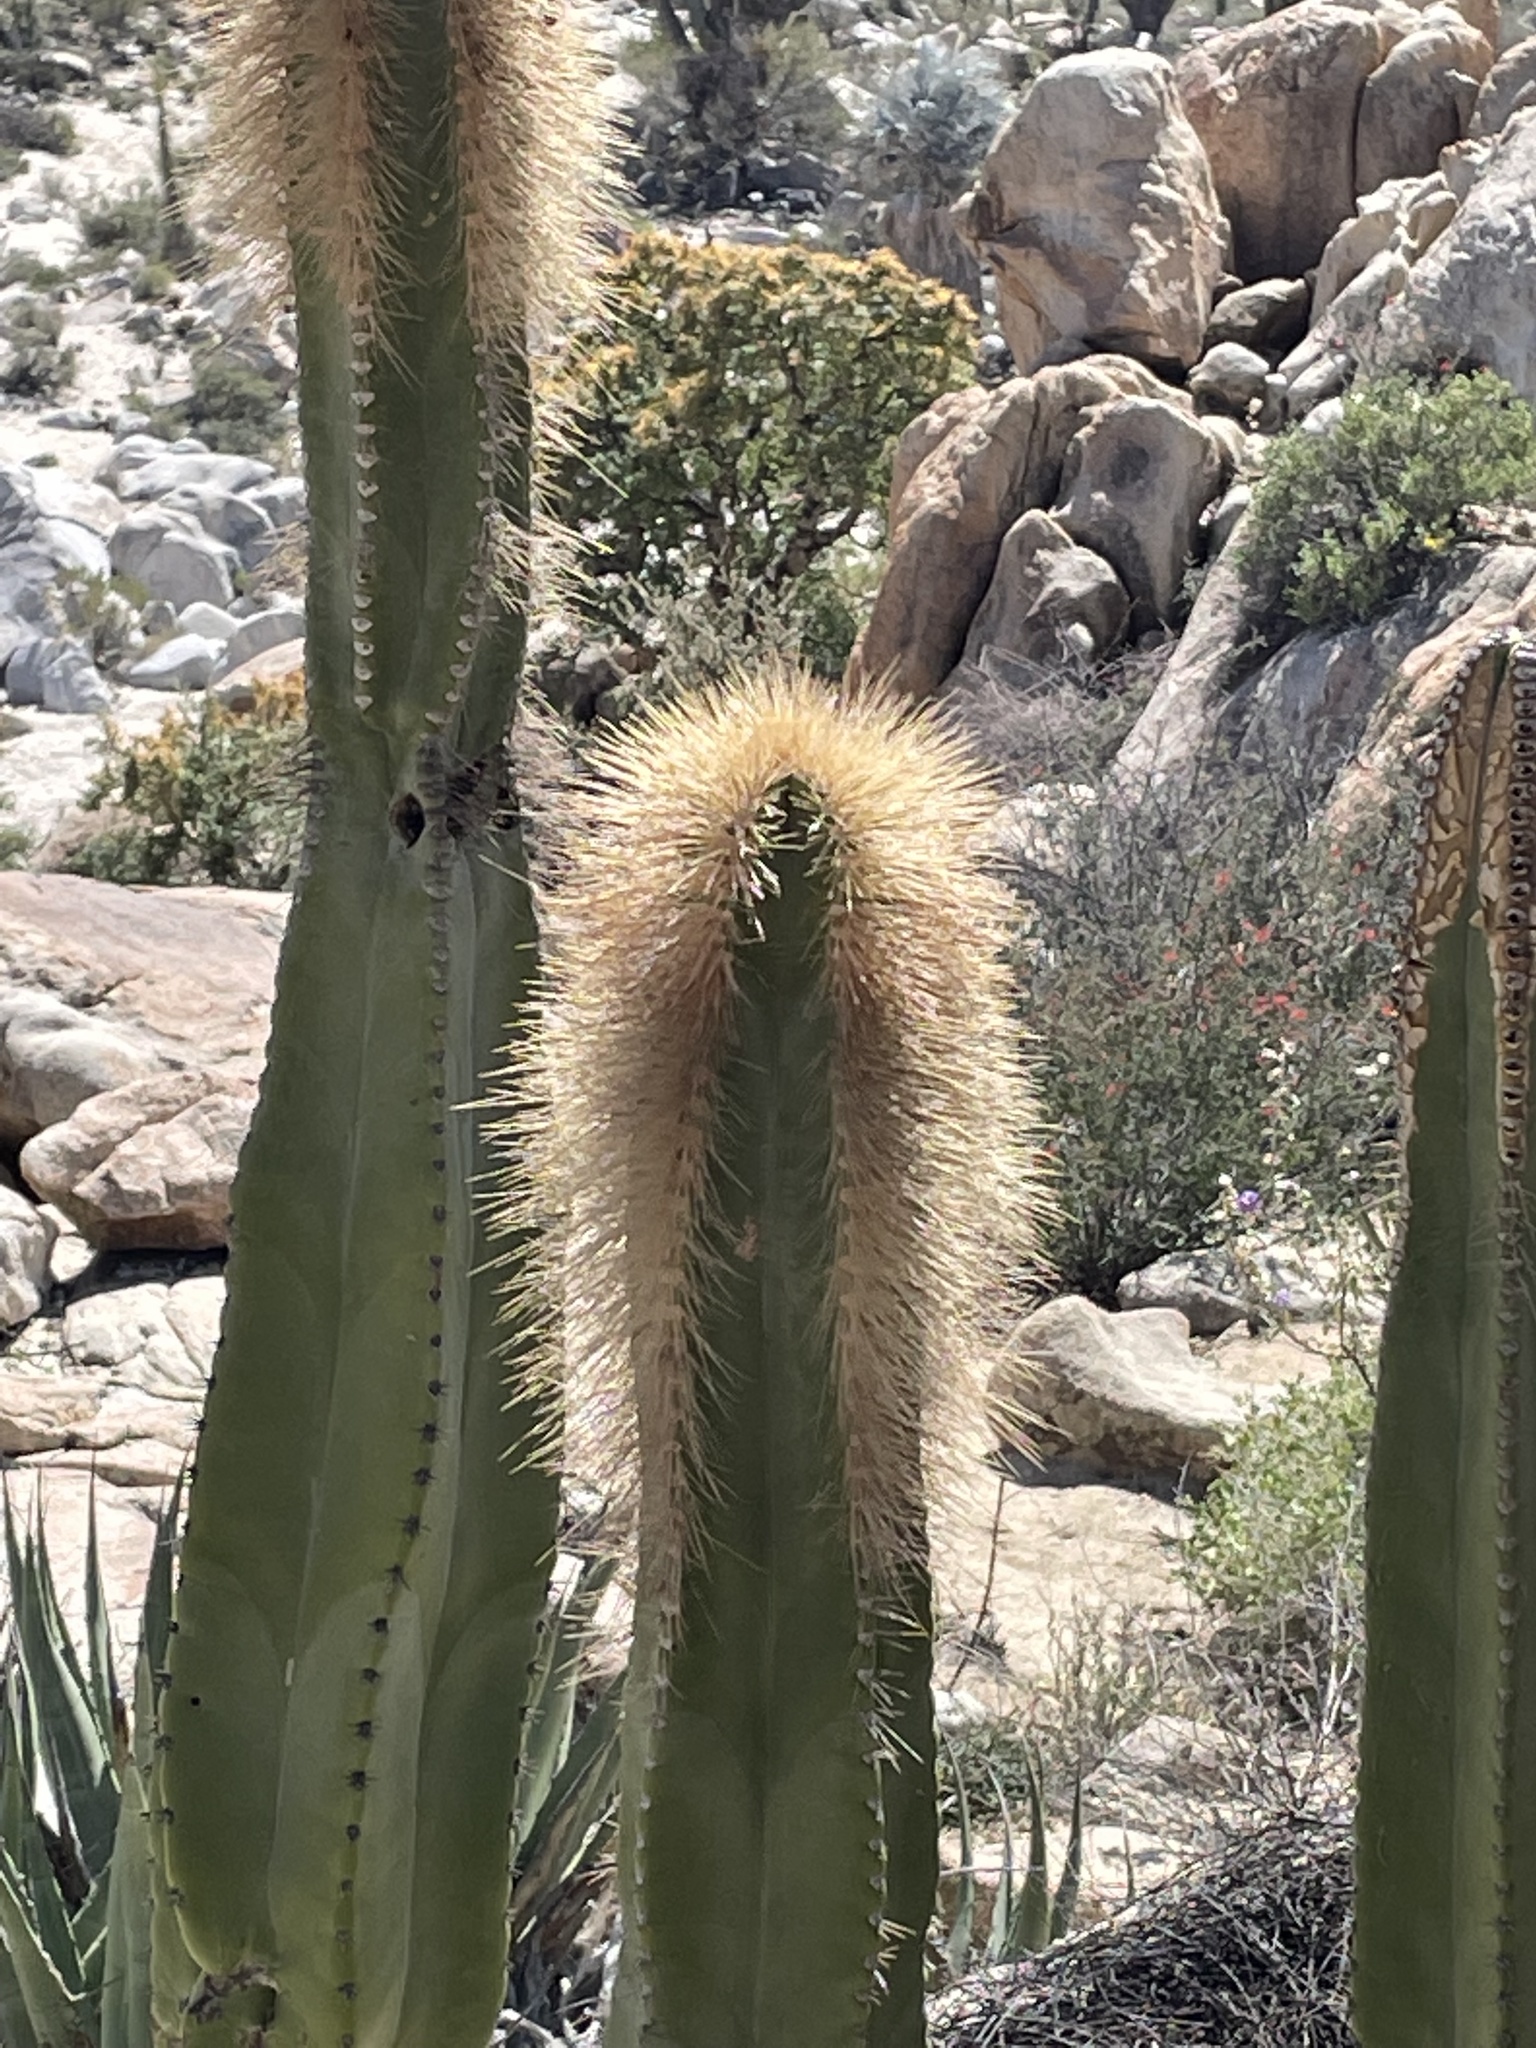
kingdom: Plantae
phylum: Tracheophyta
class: Magnoliopsida
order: Caryophyllales
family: Cactaceae
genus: Pachycereus
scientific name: Pachycereus schottii
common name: Senita cactus
